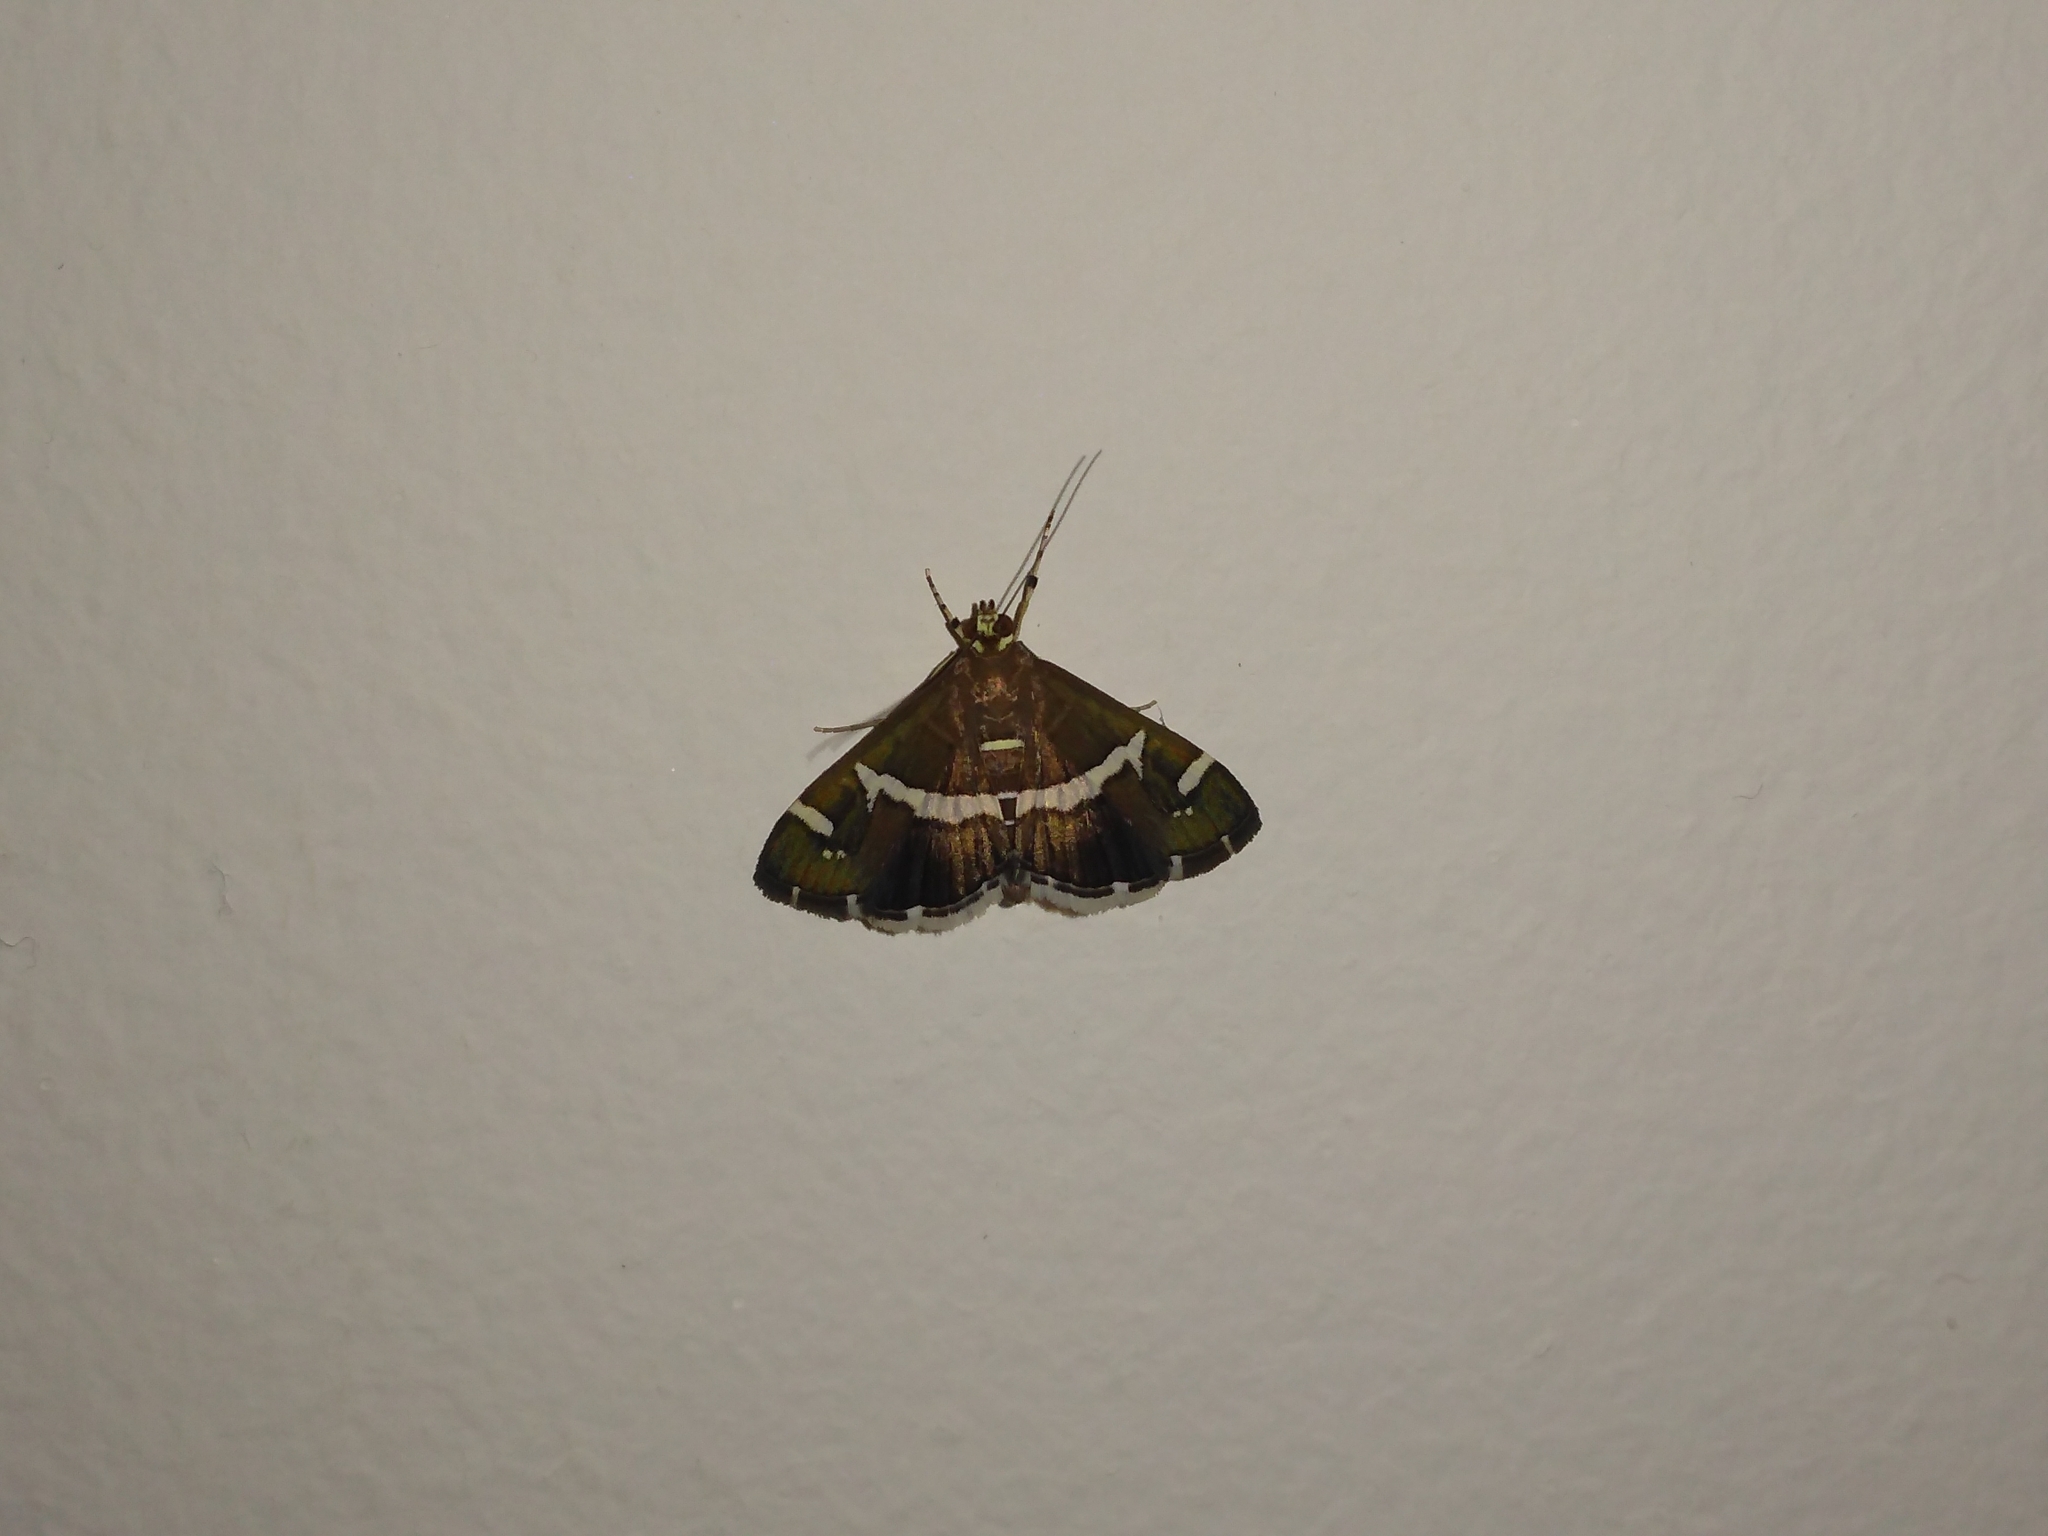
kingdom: Animalia
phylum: Arthropoda
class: Insecta
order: Lepidoptera
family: Crambidae
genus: Spoladea
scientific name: Spoladea recurvalis
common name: Beet webworm moth
